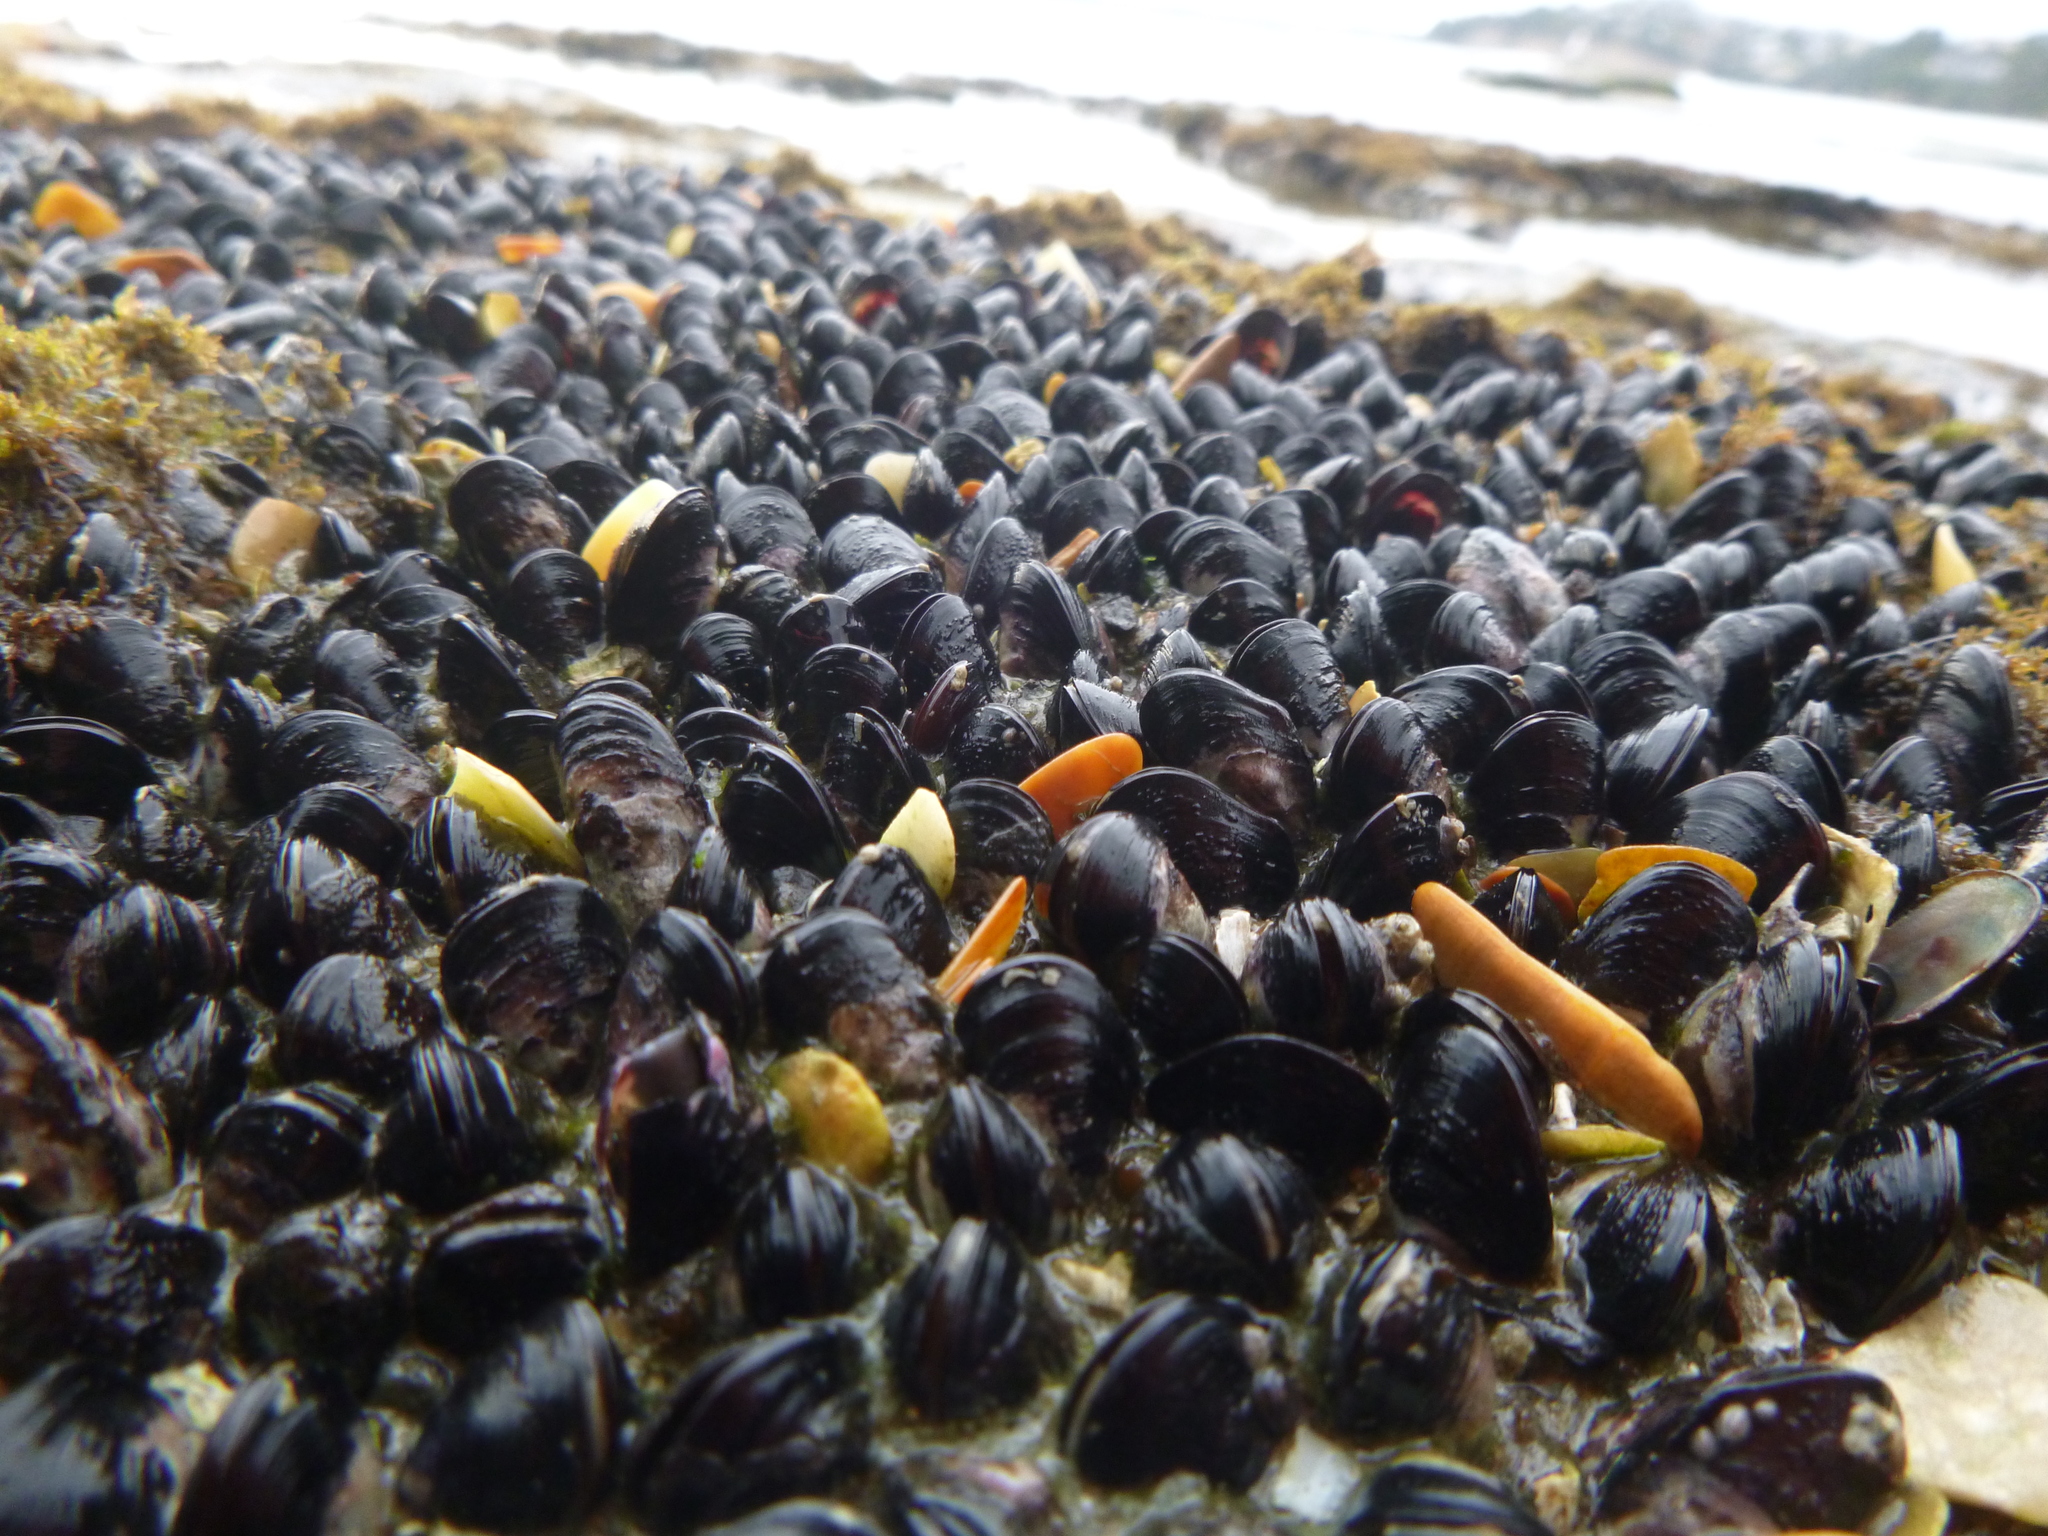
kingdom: Animalia
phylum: Mollusca
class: Bivalvia
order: Mytilida
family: Mytilidae
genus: Xenostrobus
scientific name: Xenostrobus neozelanicus
